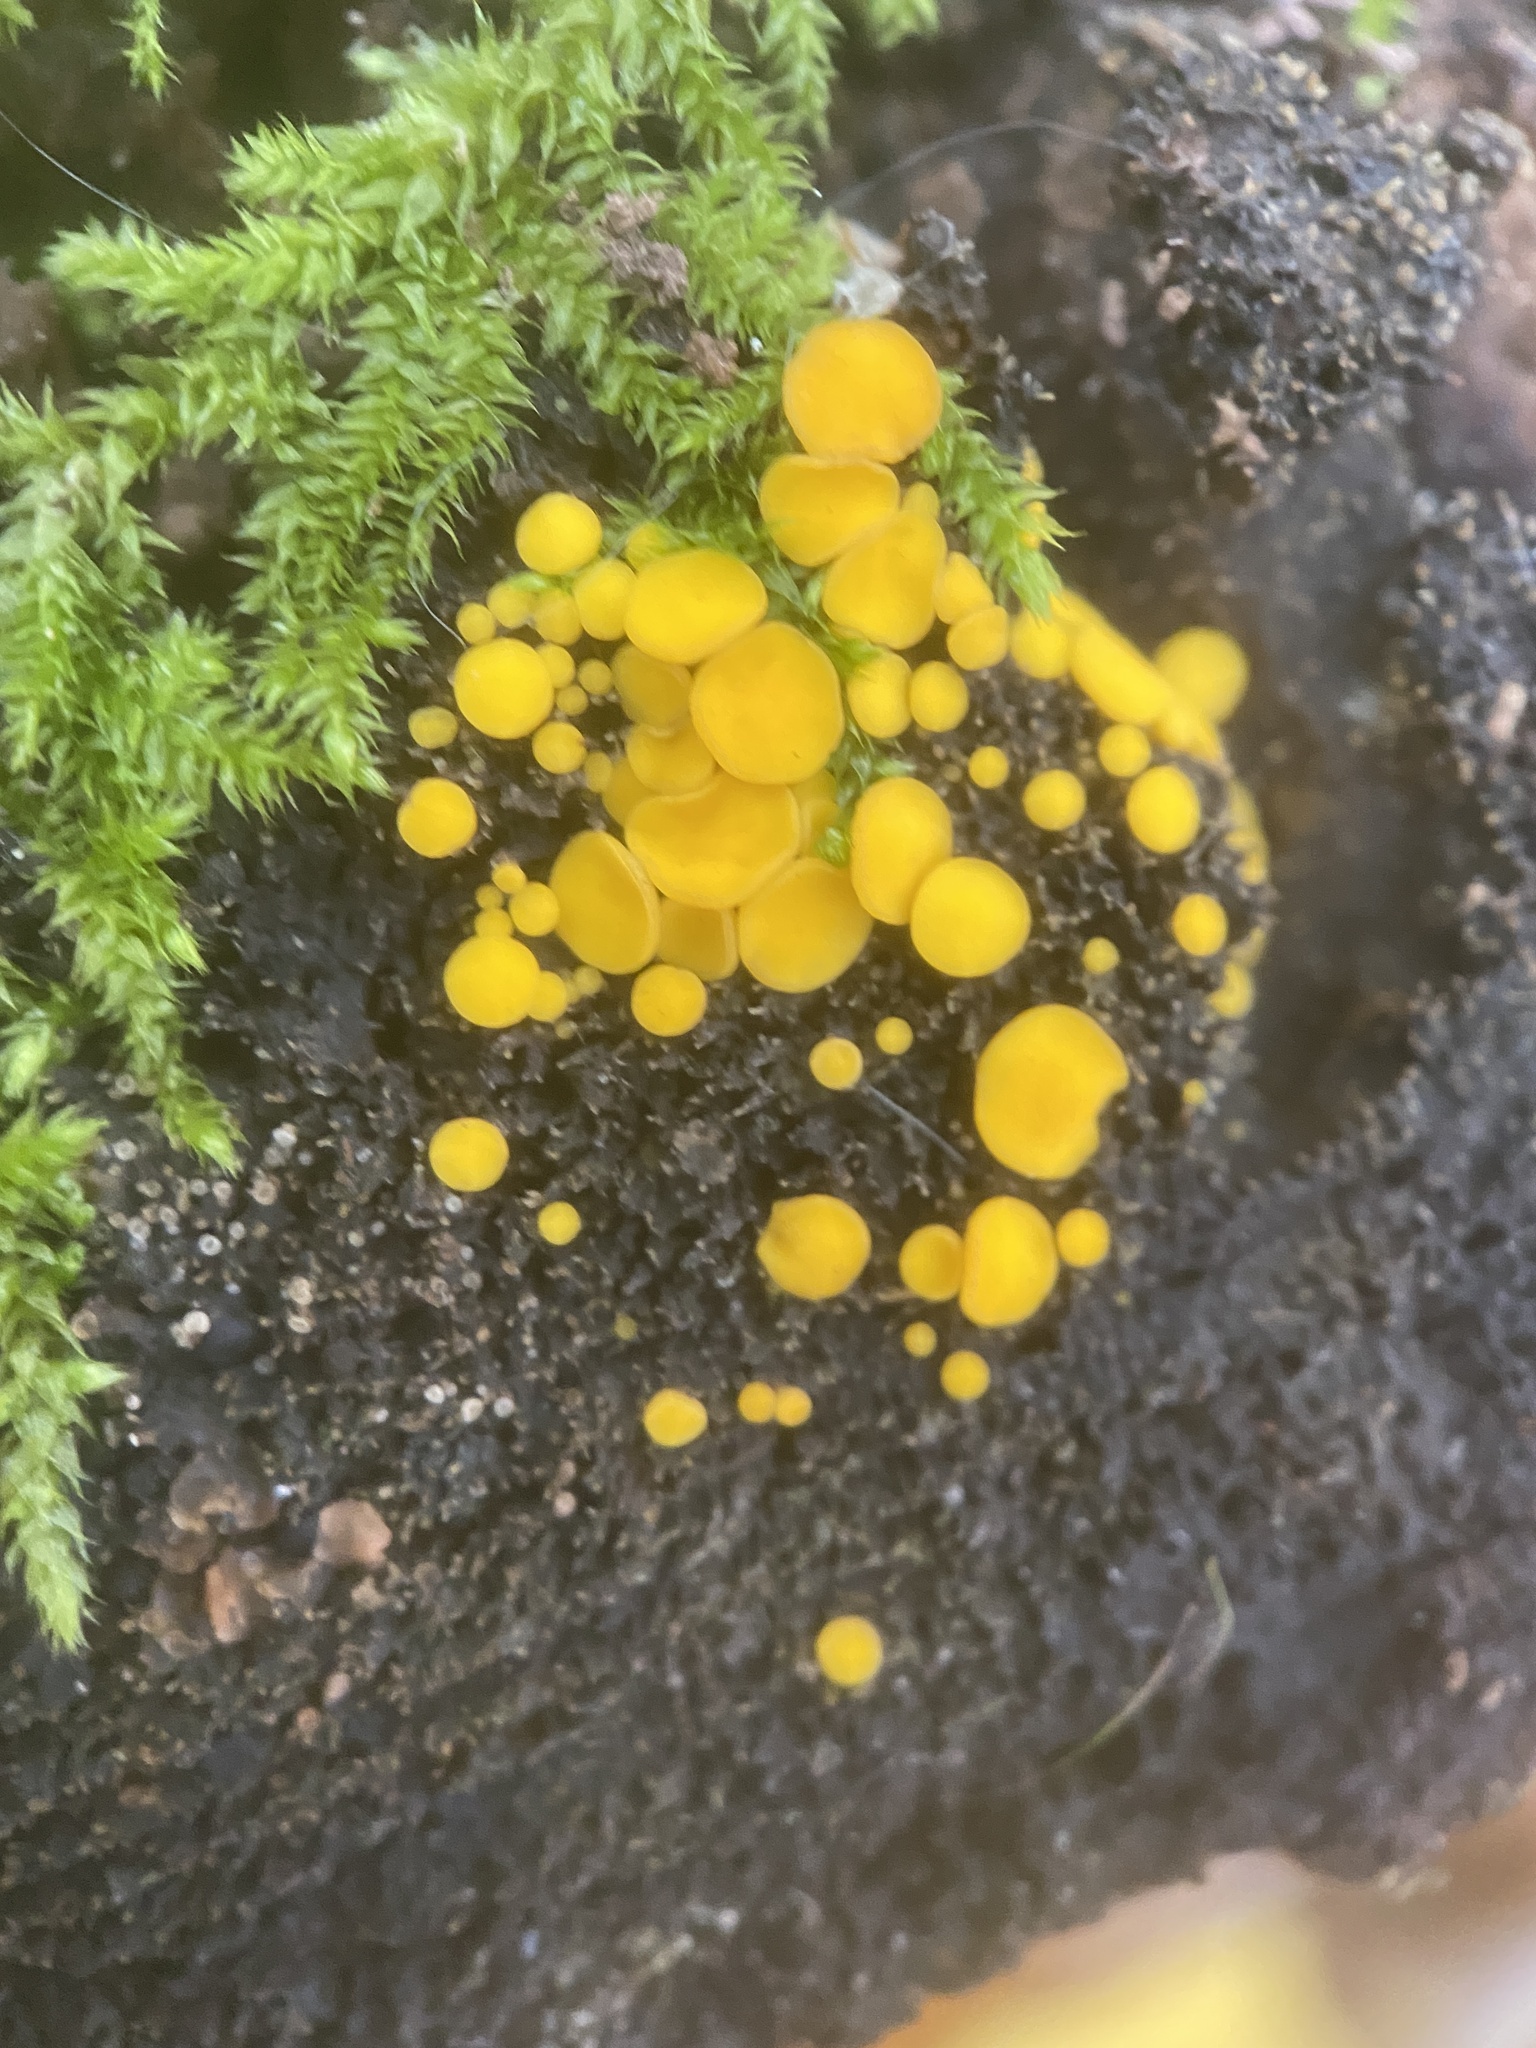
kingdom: Fungi
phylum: Ascomycota
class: Leotiomycetes
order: Helotiales
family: Pezizellaceae
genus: Calycina
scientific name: Calycina citrina
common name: Yellow fairy cups
